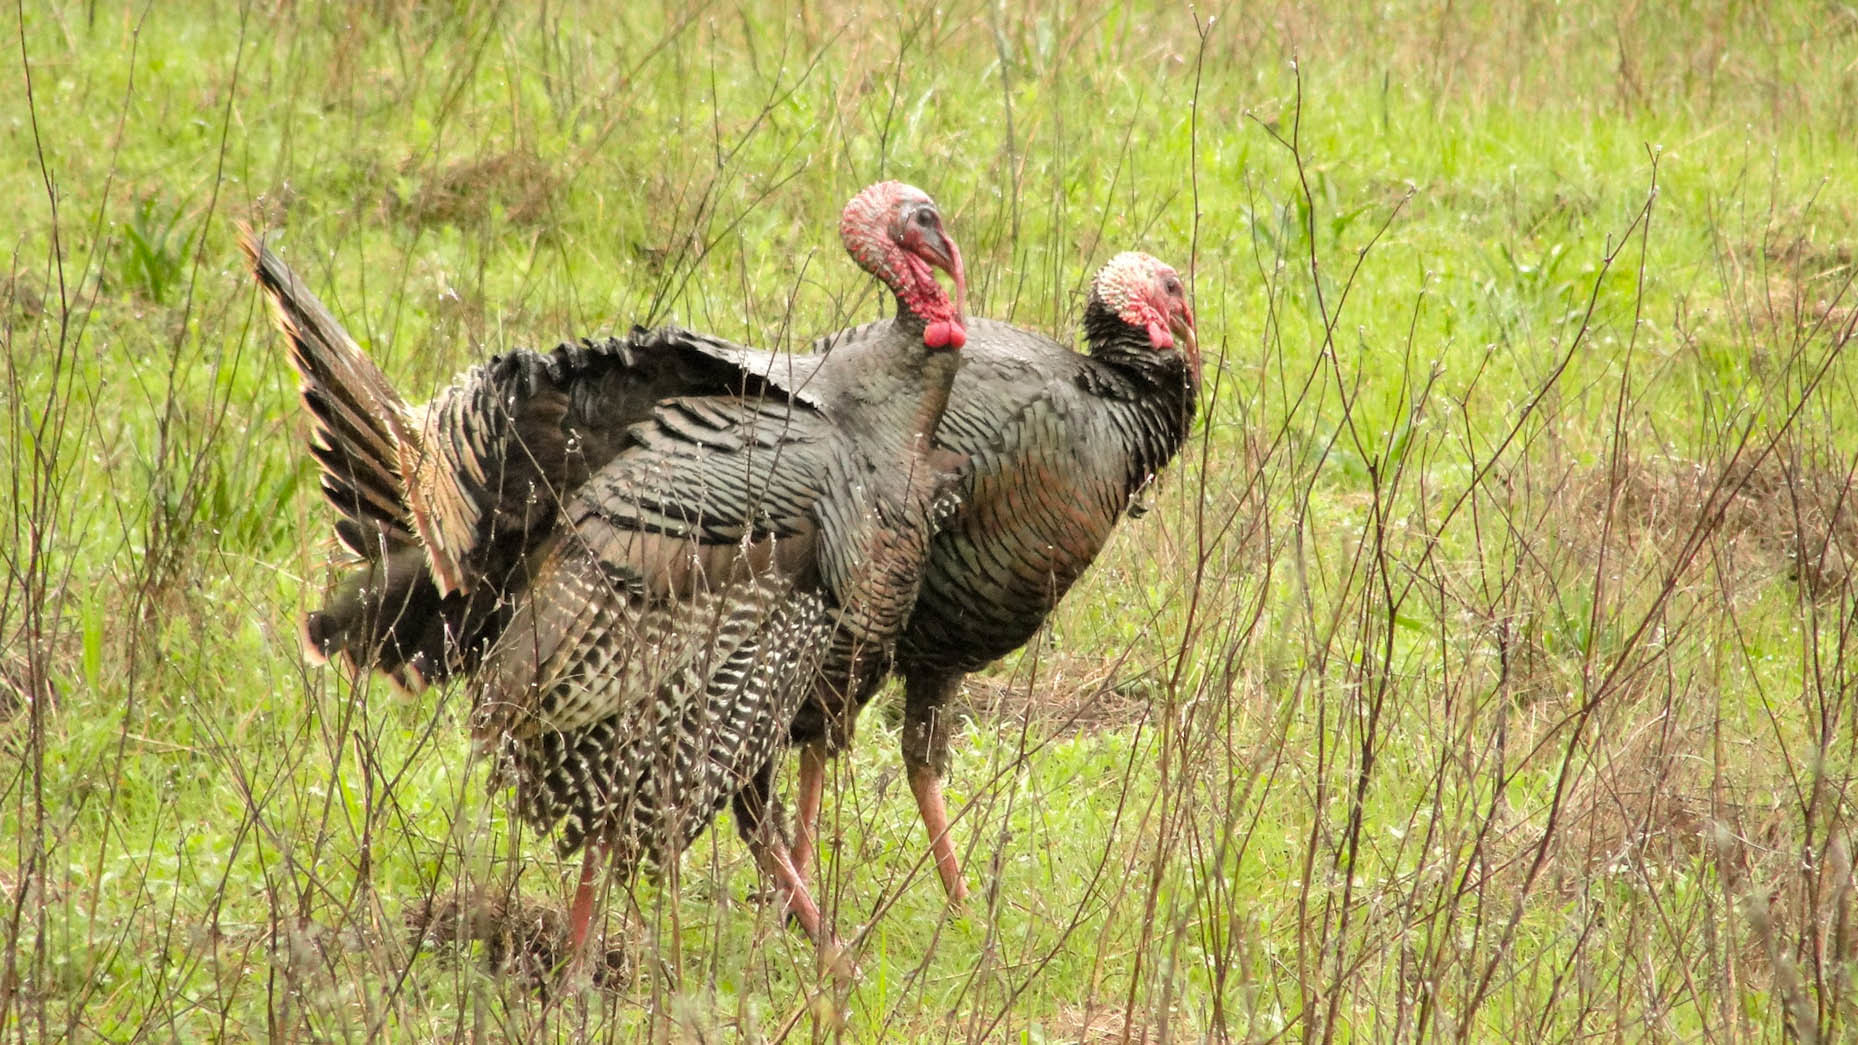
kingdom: Animalia
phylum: Chordata
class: Aves
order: Galliformes
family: Phasianidae
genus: Meleagris
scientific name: Meleagris gallopavo
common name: Wild turkey
